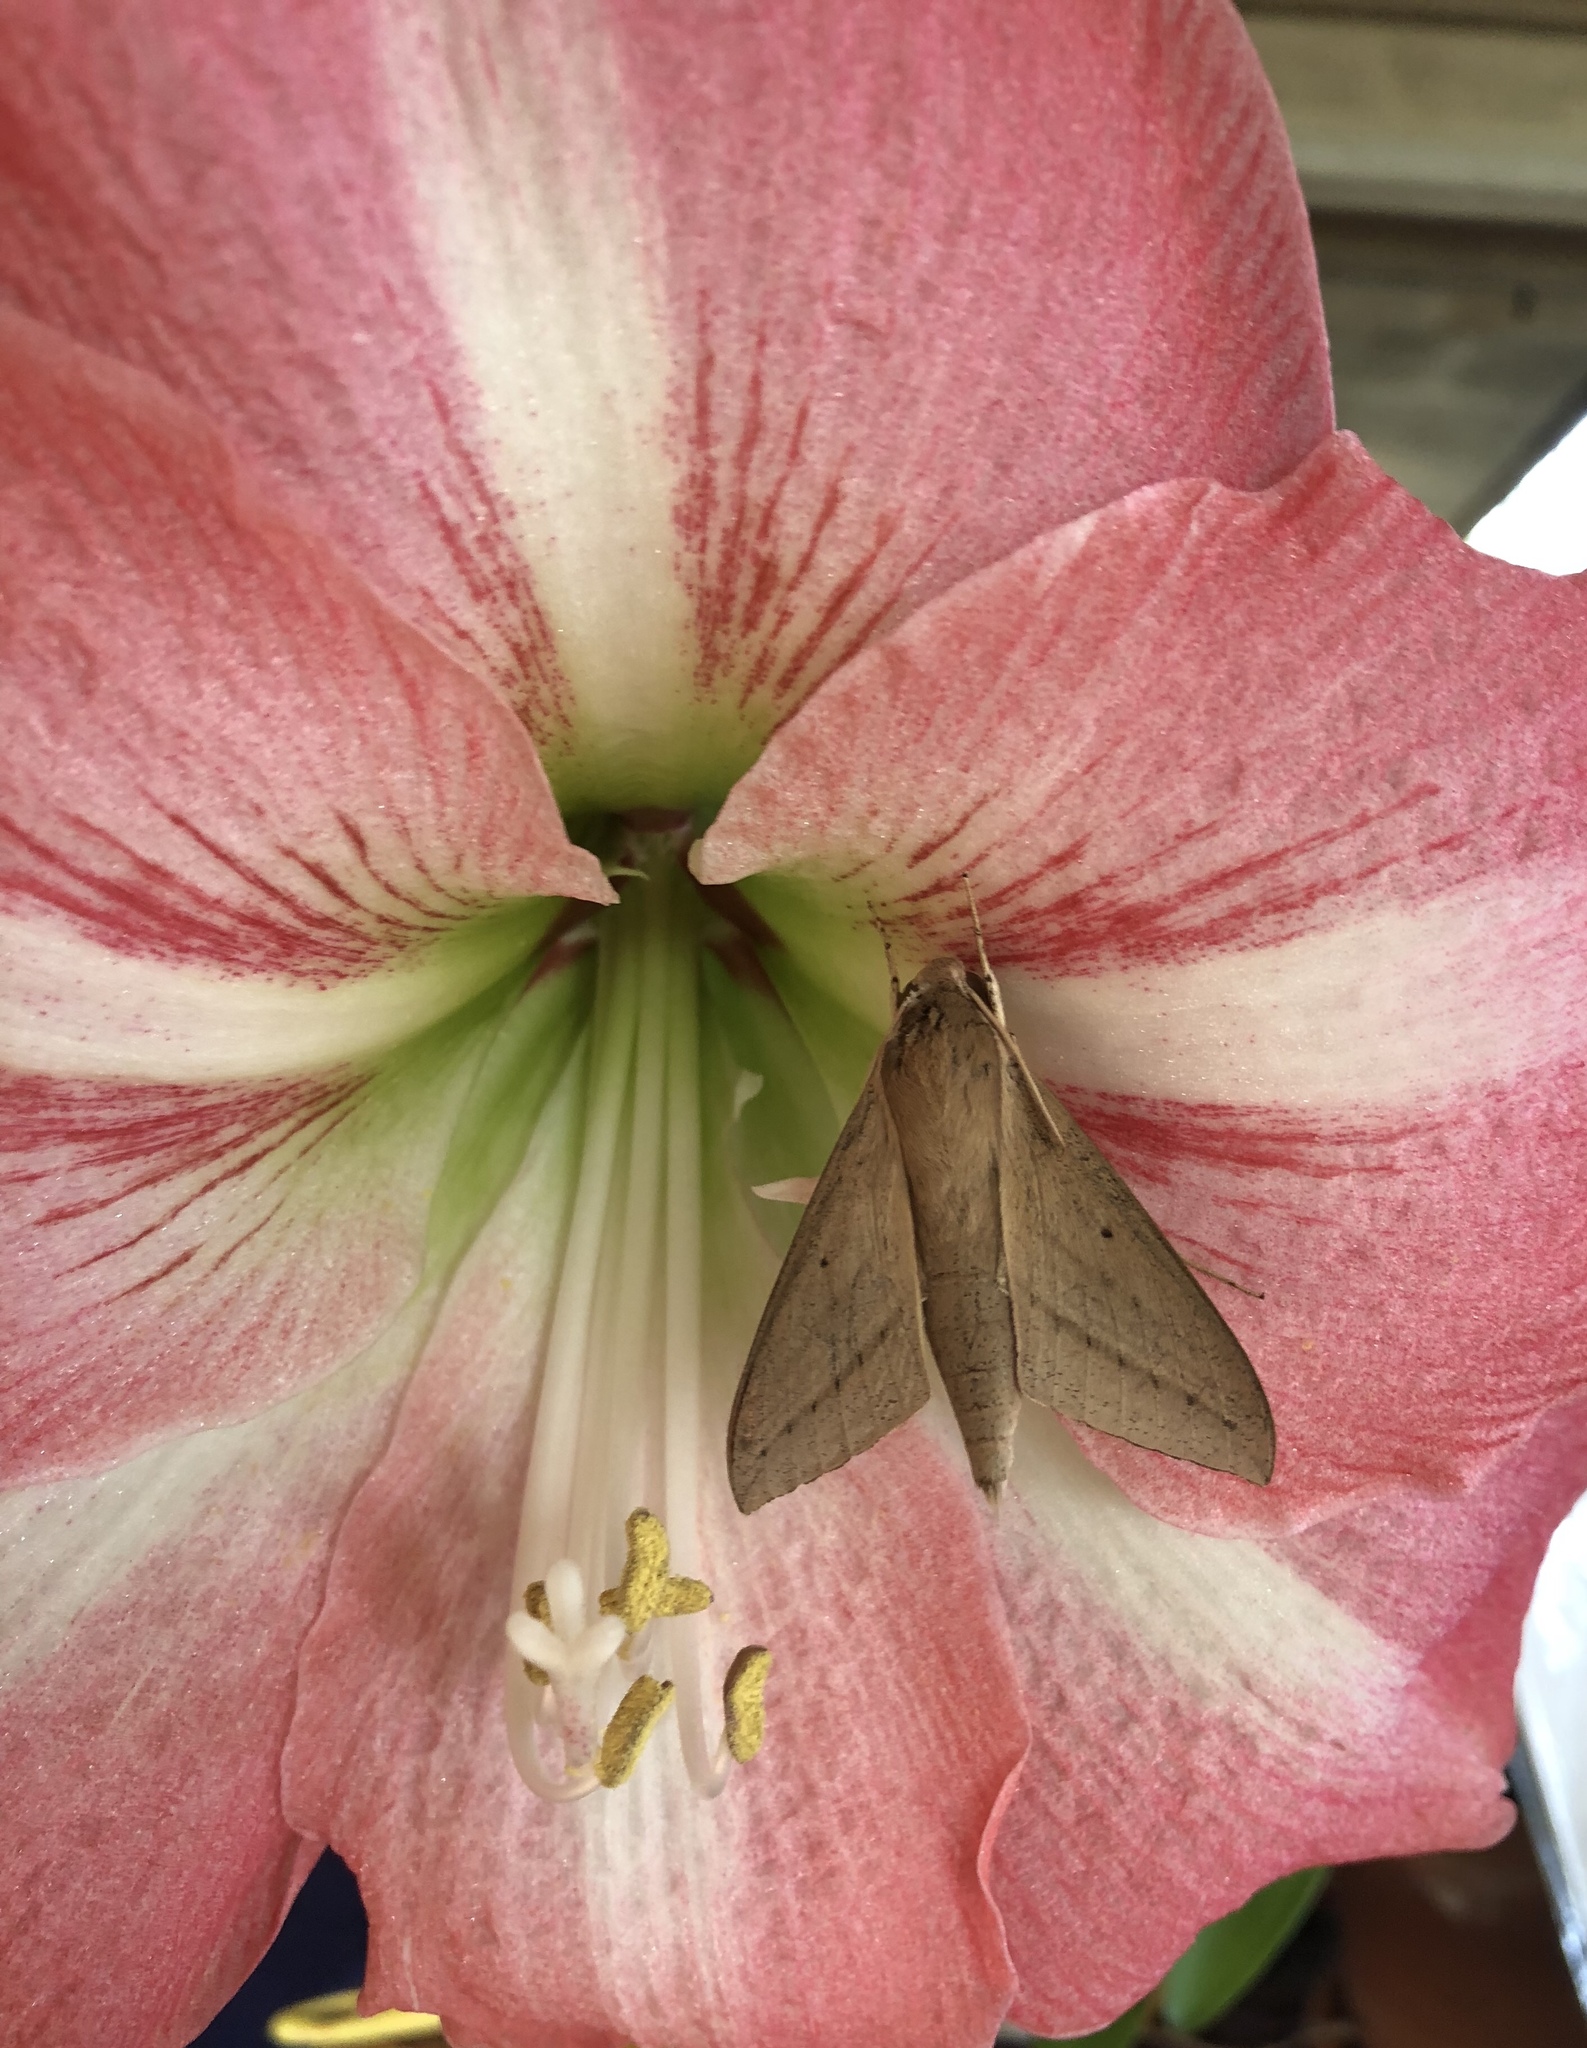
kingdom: Animalia
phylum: Arthropoda
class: Insecta
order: Lepidoptera
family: Sphingidae
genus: Theretra
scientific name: Theretra latreillii
